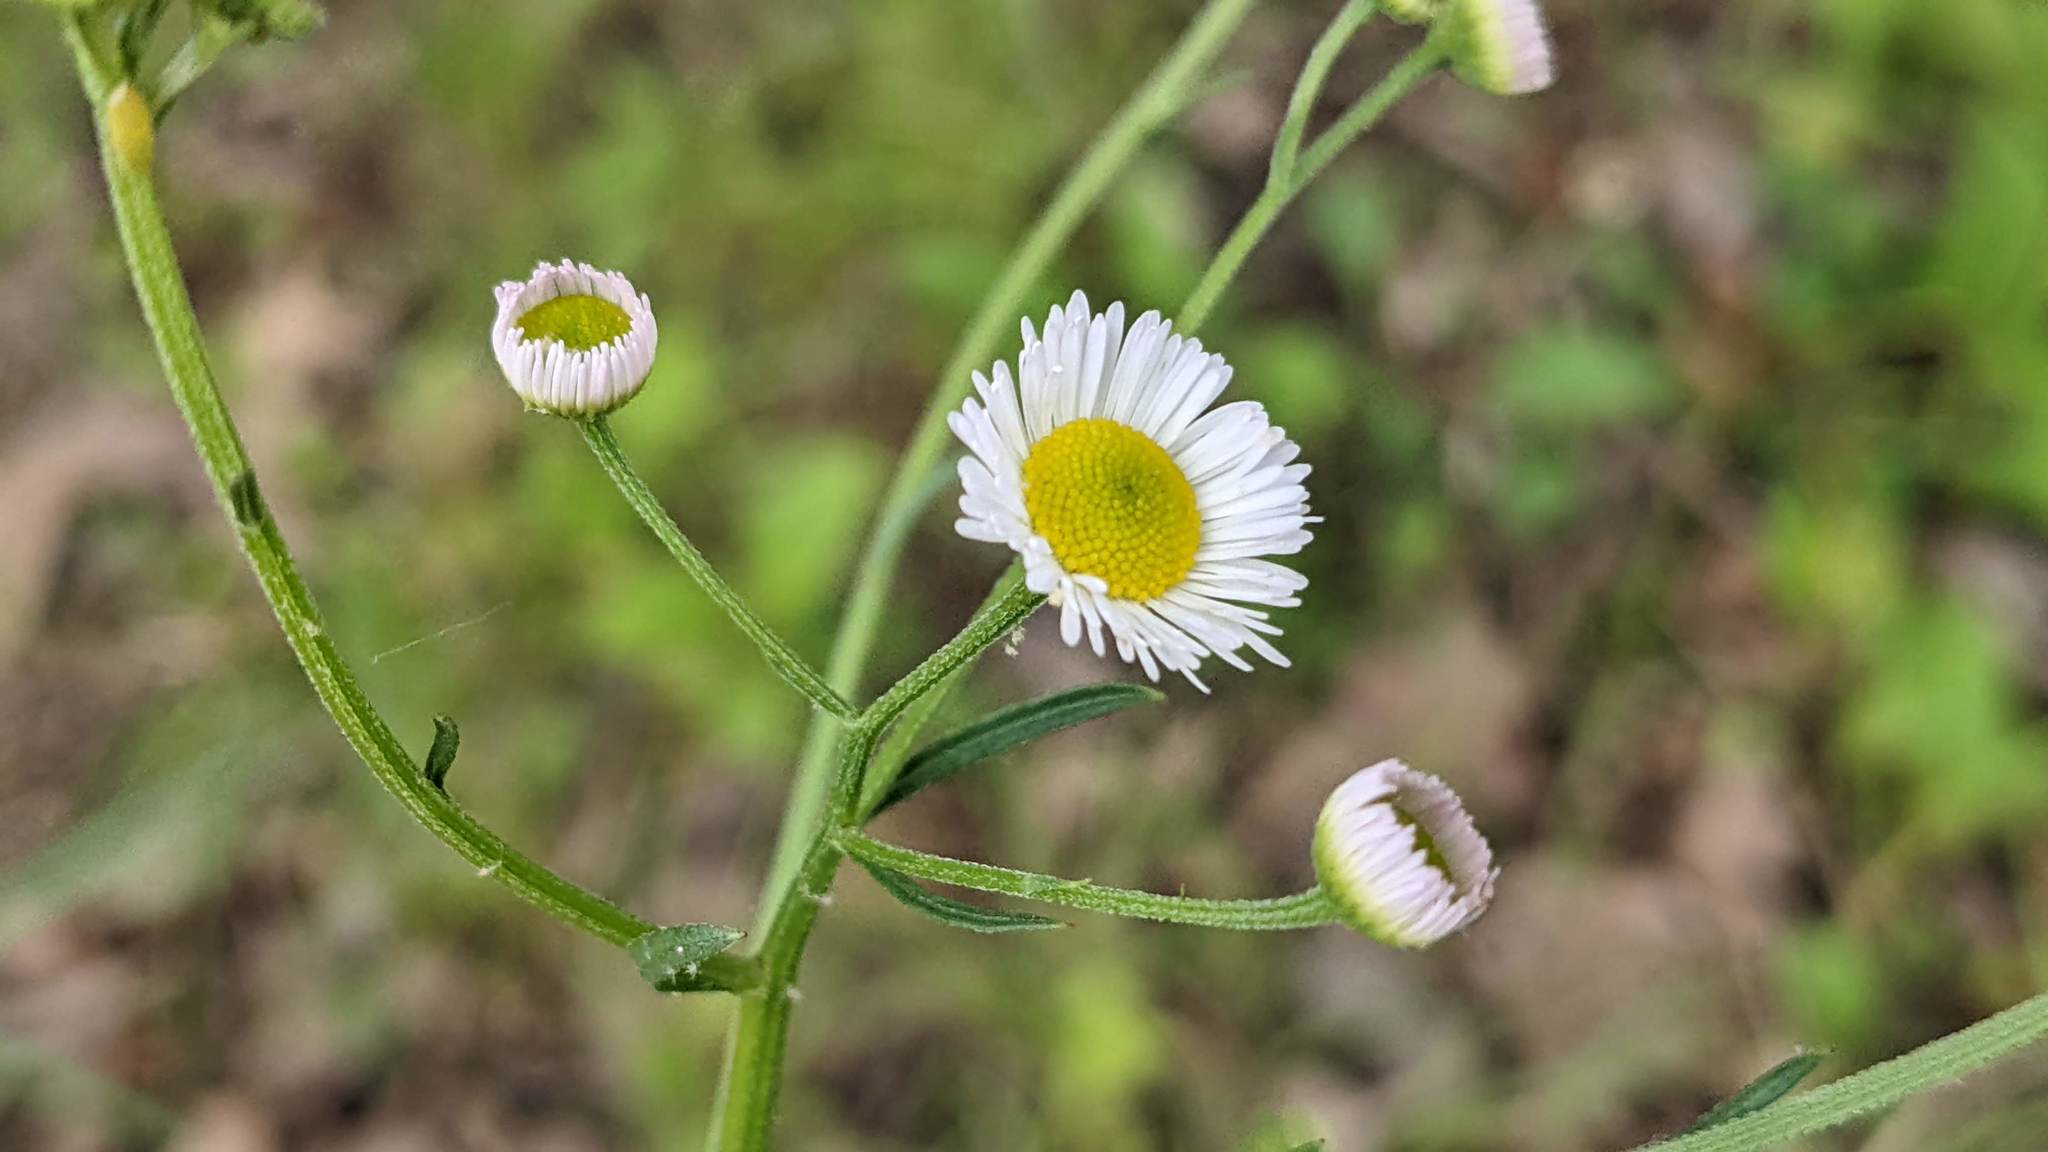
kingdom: Plantae
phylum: Tracheophyta
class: Magnoliopsida
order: Asterales
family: Asteraceae
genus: Erigeron
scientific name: Erigeron strigosus
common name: Common eastern fleabane
